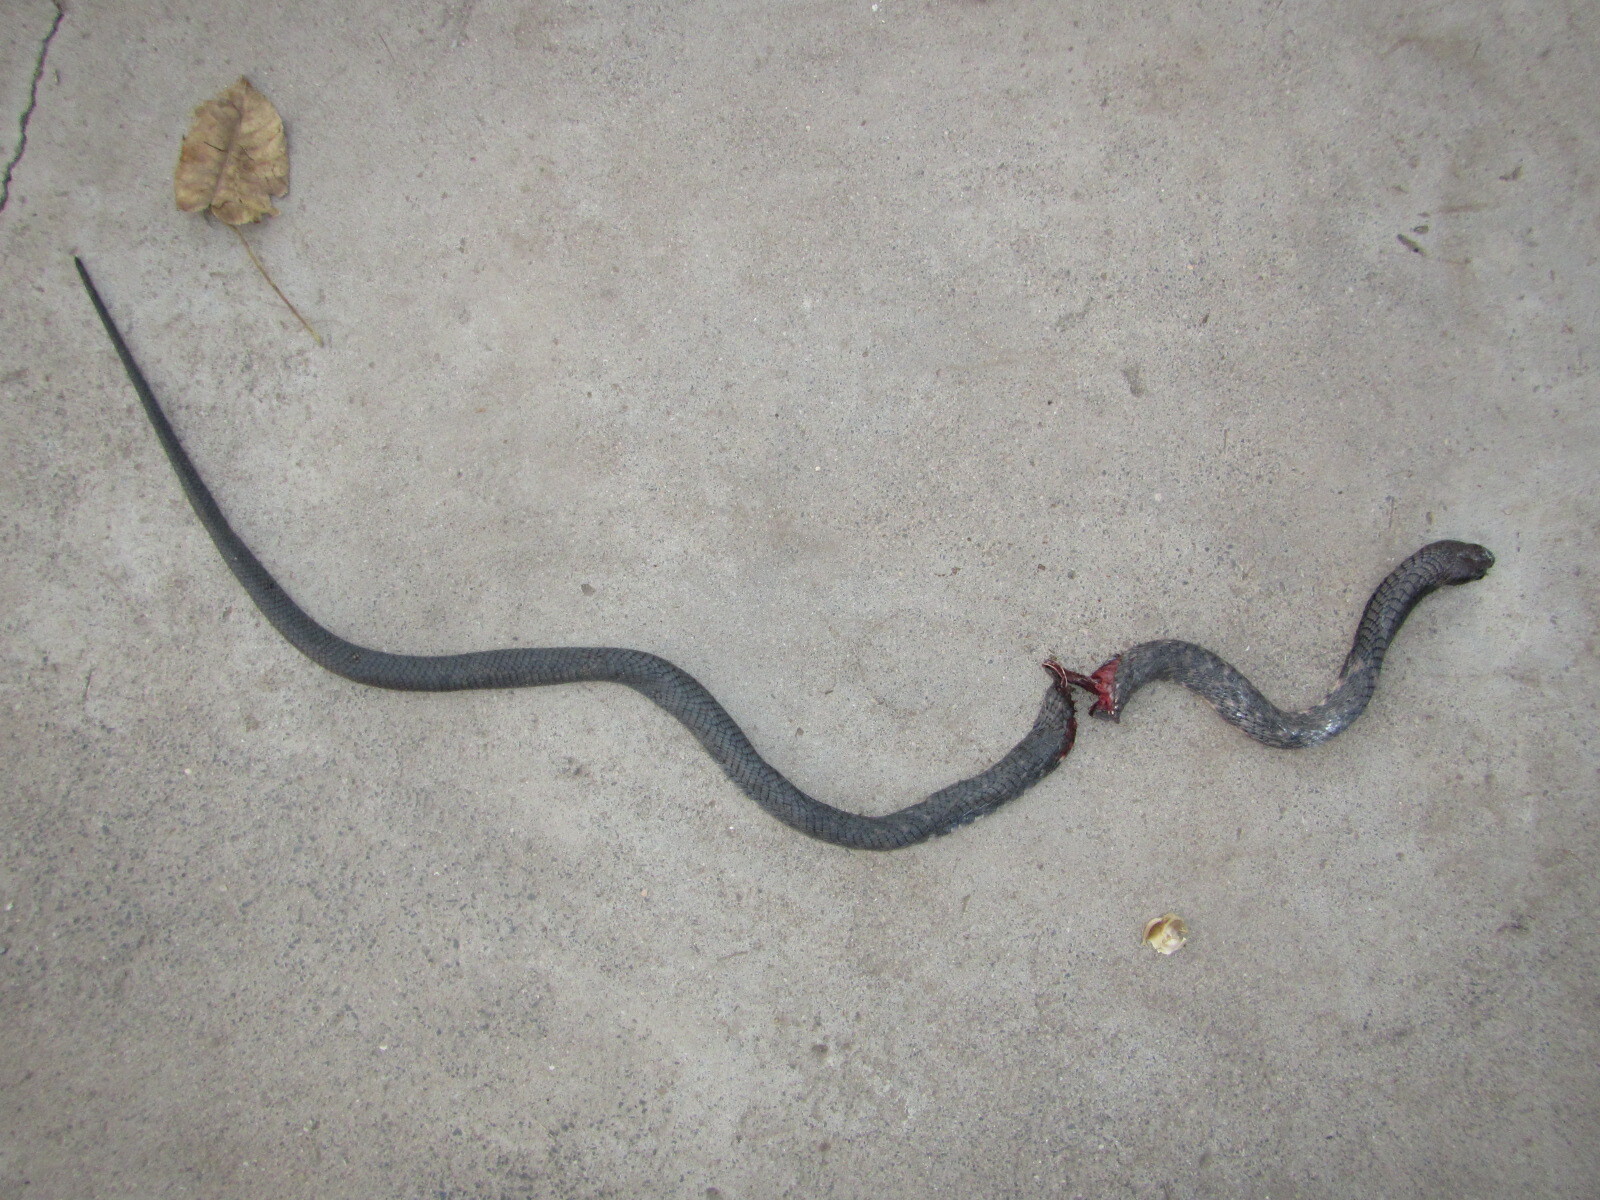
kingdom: Animalia
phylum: Chordata
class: Squamata
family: Elapidae
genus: Naja
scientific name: Naja nigricollis
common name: Black-necked spitting cobra
